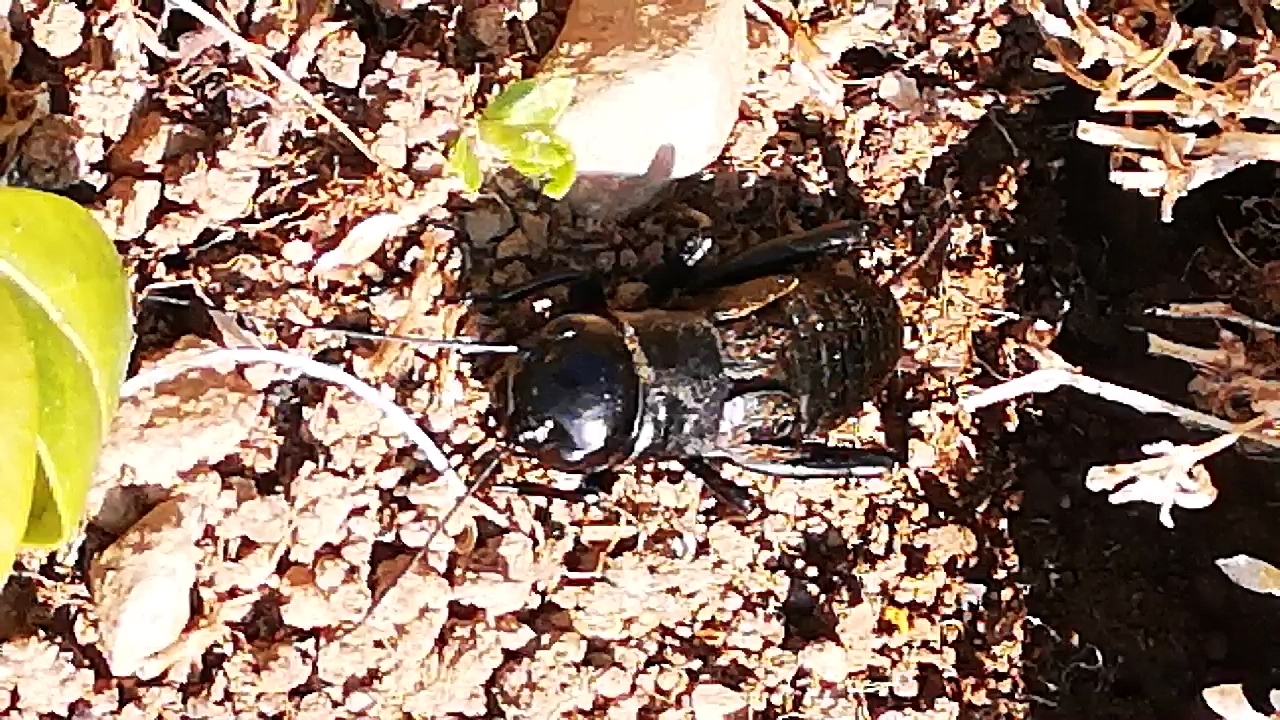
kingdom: Animalia
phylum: Arthropoda
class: Insecta
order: Orthoptera
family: Gryllidae
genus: Gryllus
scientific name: Gryllus campestris
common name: Field cricket
